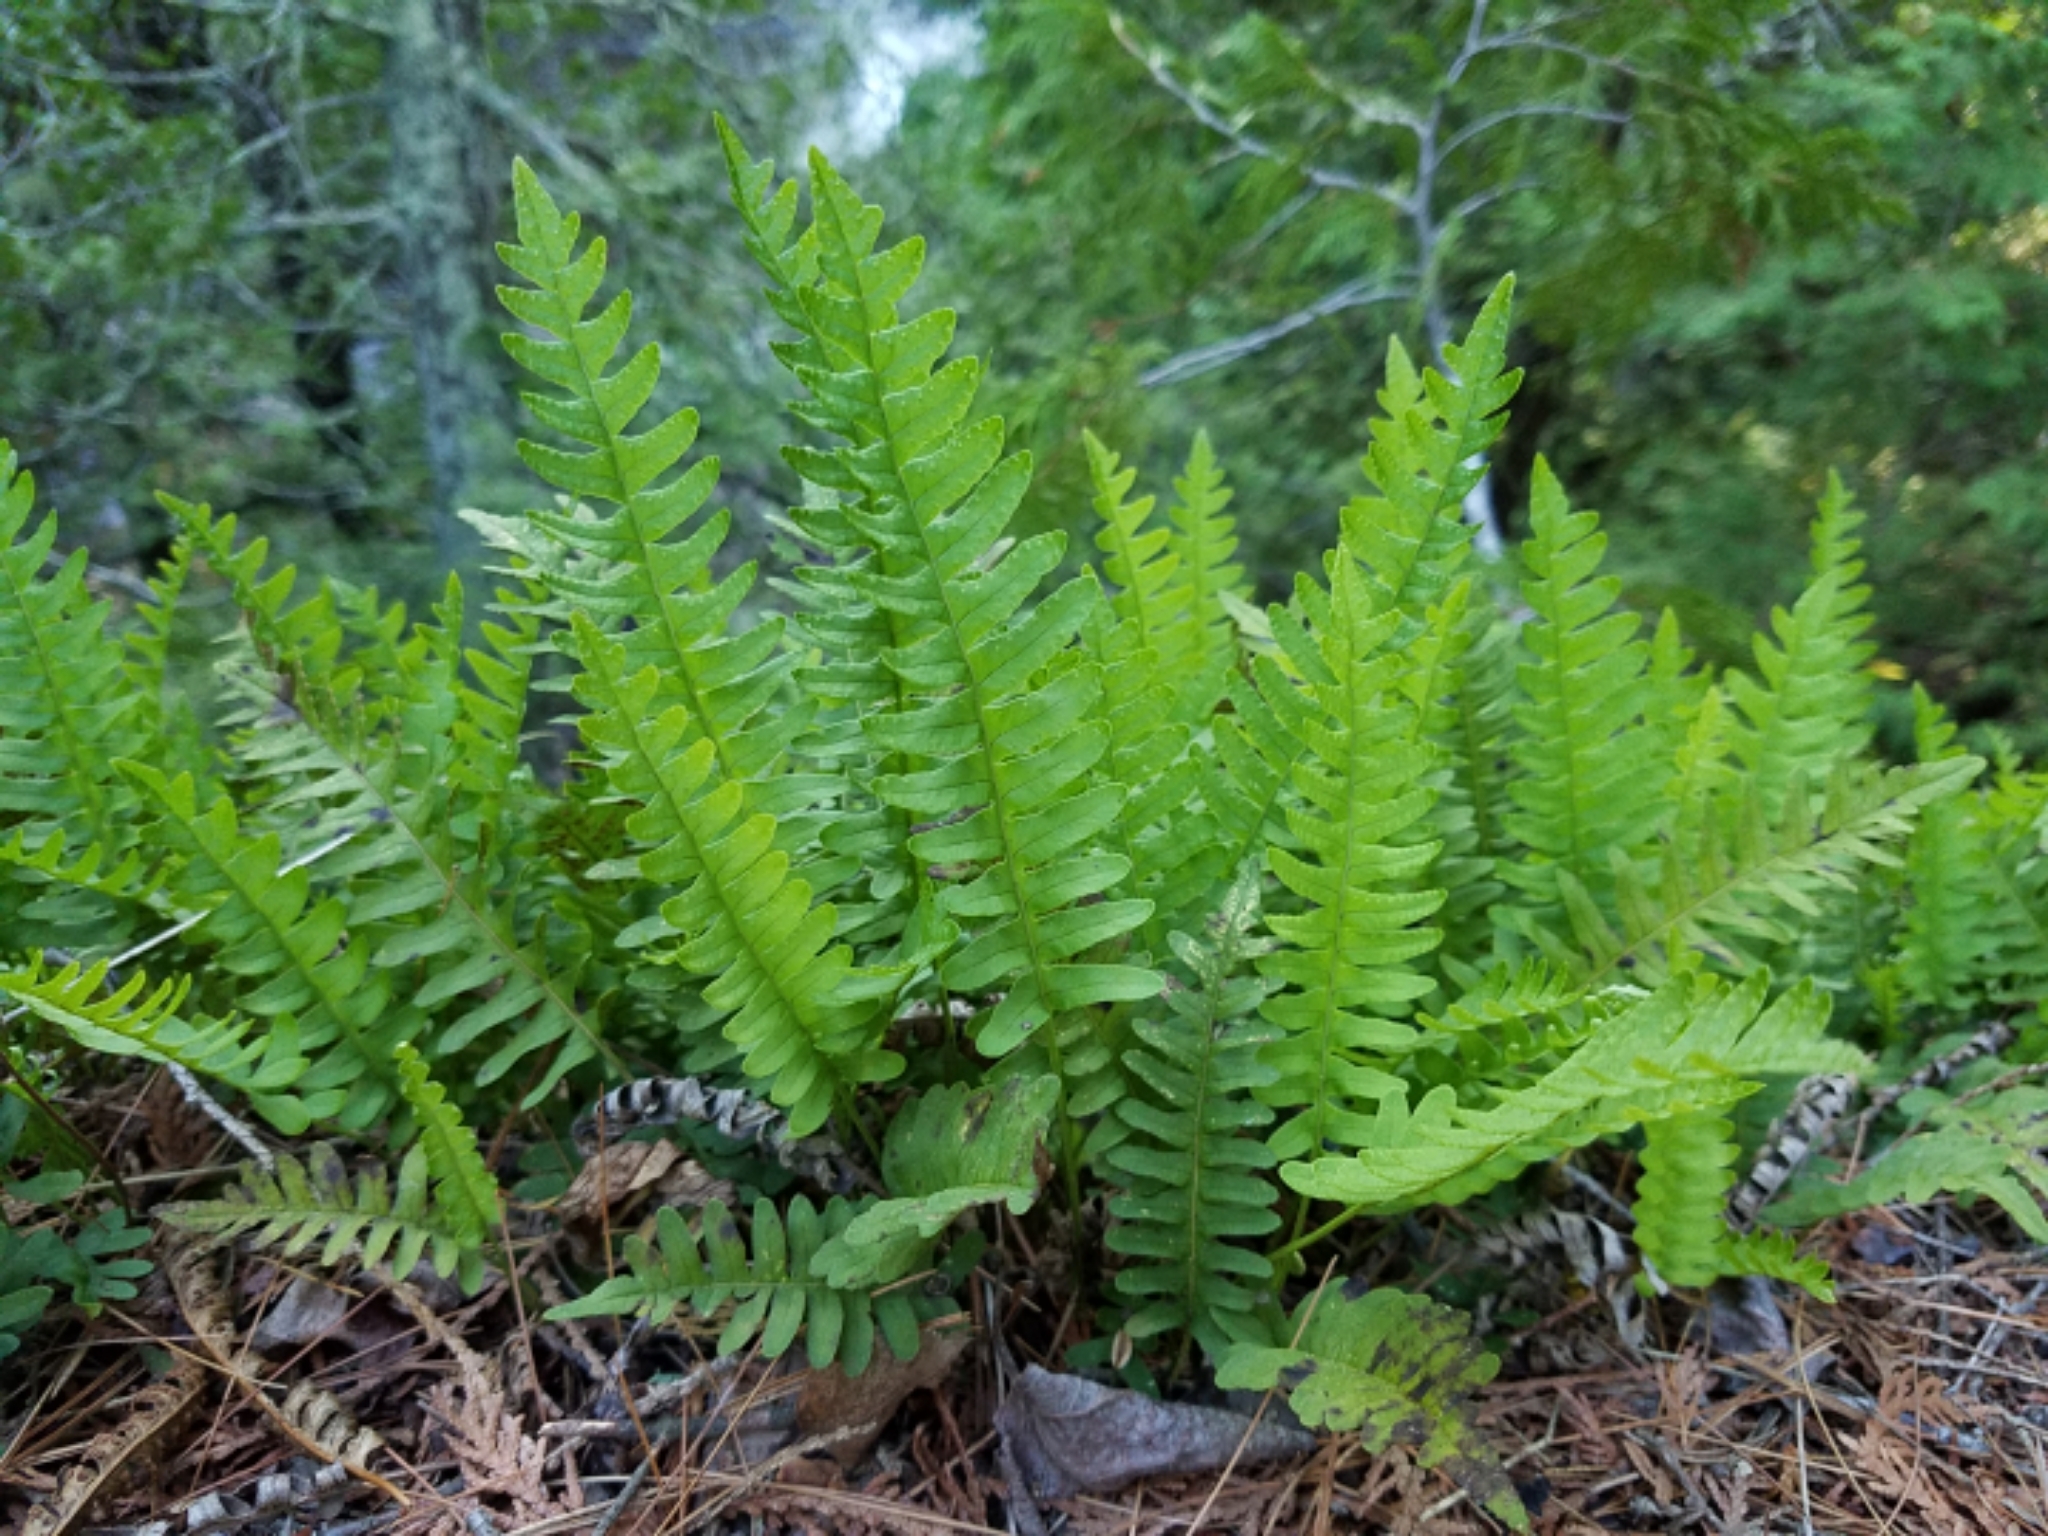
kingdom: Plantae
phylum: Tracheophyta
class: Polypodiopsida
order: Polypodiales
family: Polypodiaceae
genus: Polypodium
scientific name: Polypodium virginianum
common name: American wall fern
